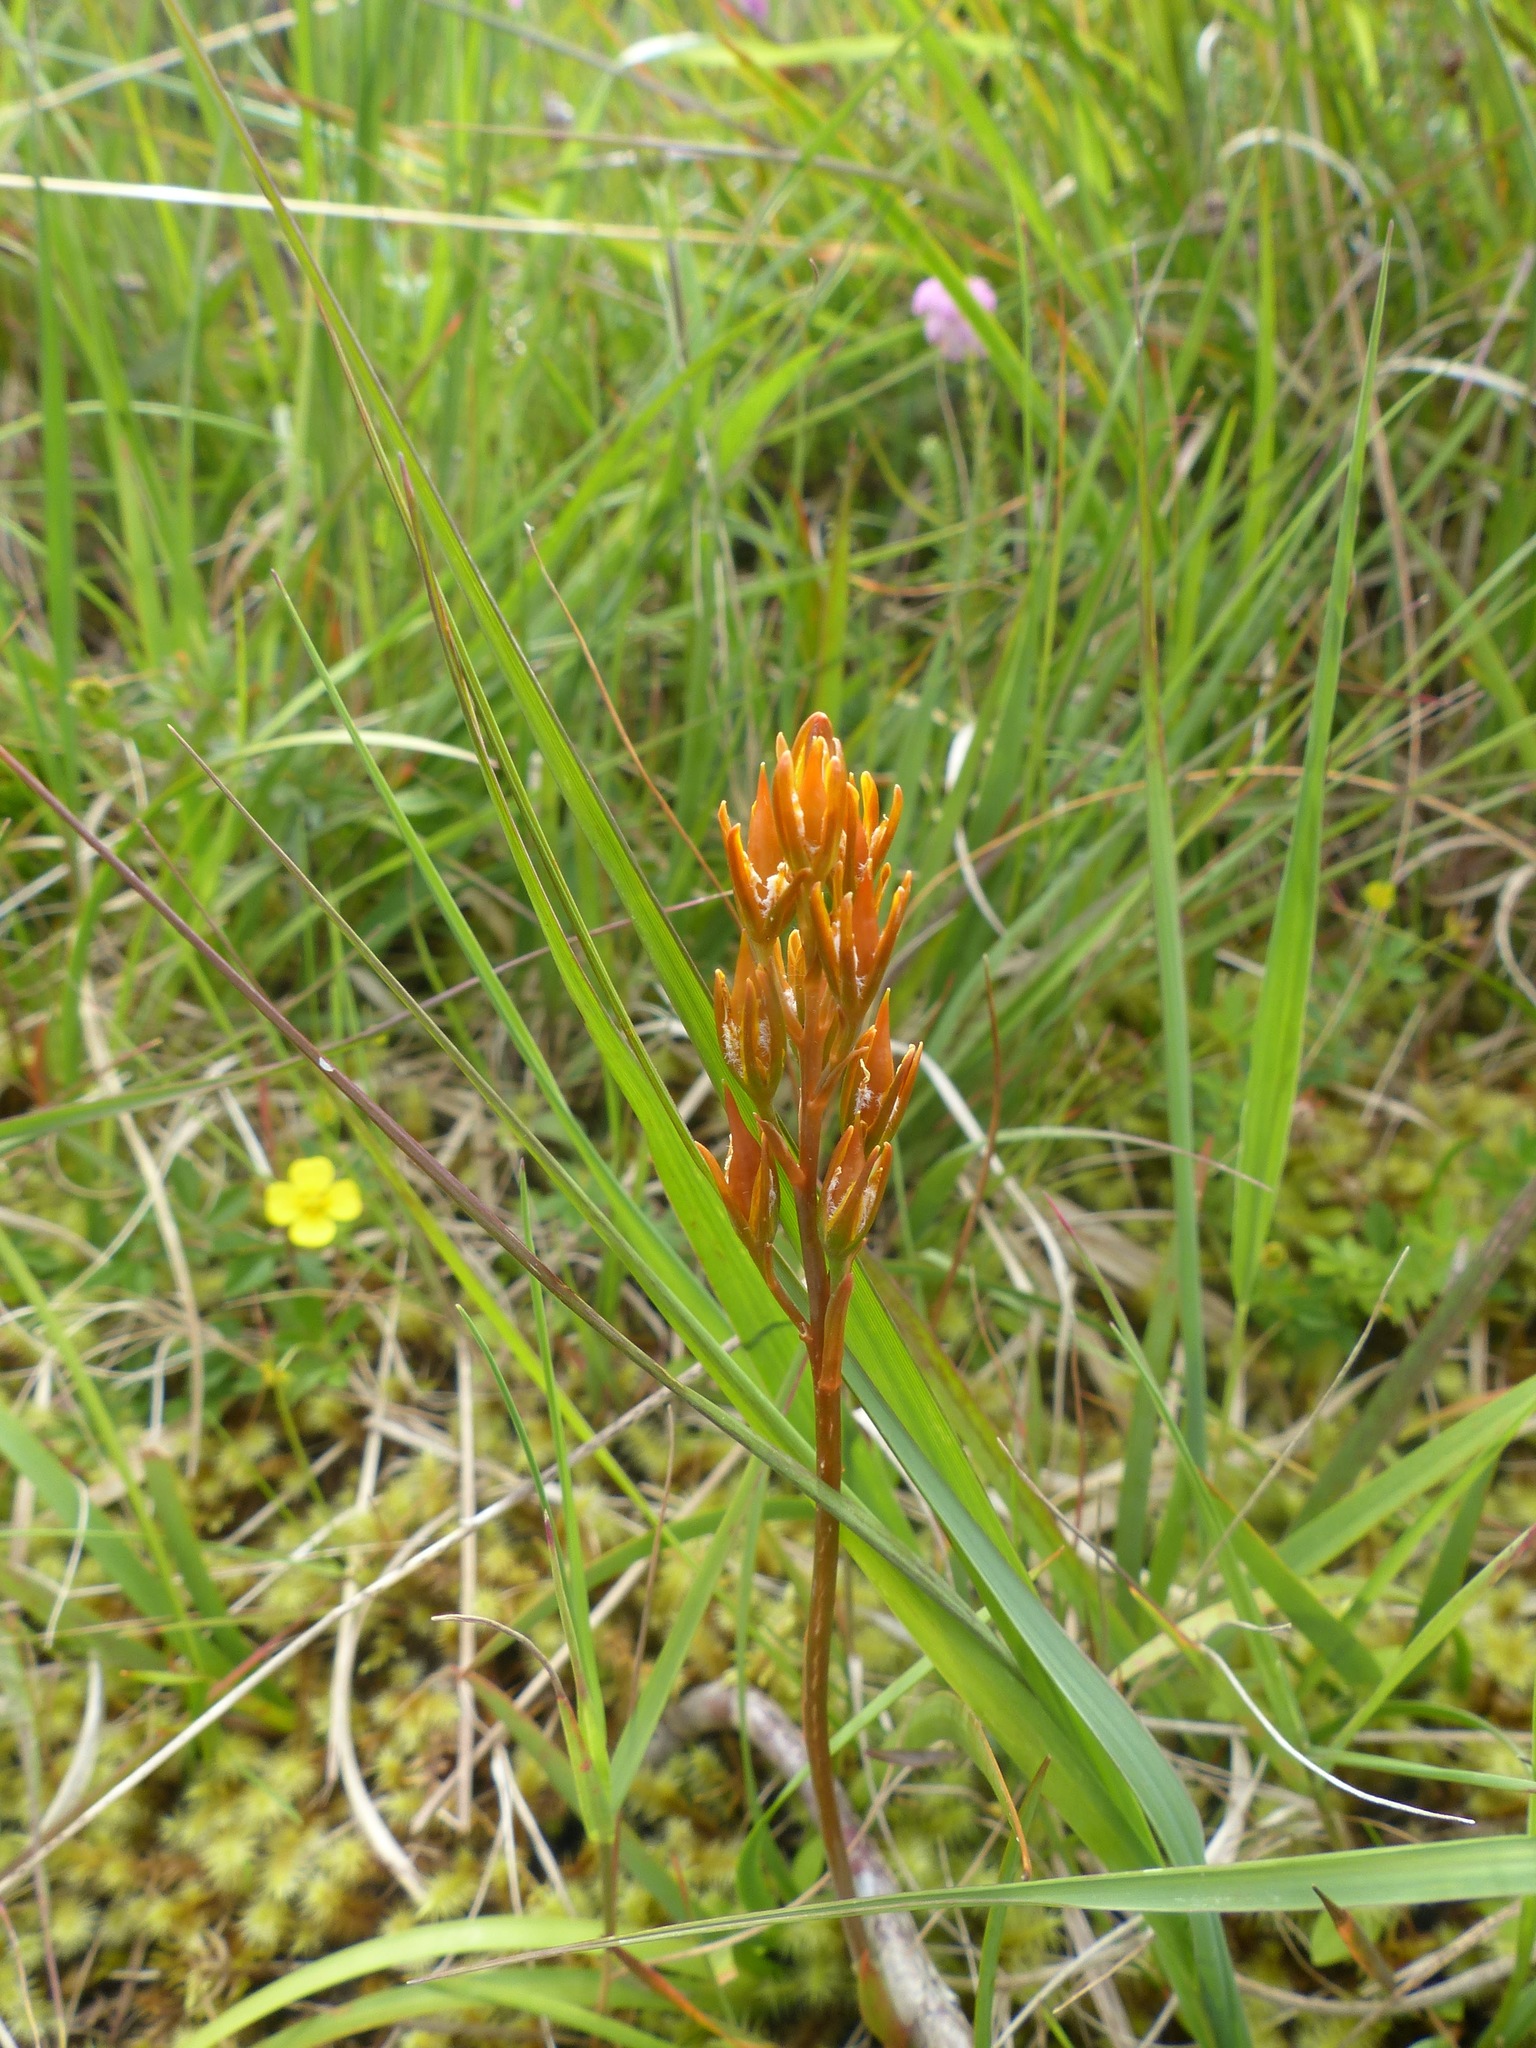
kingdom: Plantae
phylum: Tracheophyta
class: Liliopsida
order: Dioscoreales
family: Nartheciaceae
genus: Narthecium
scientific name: Narthecium ossifragum
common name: Bog asphodel
